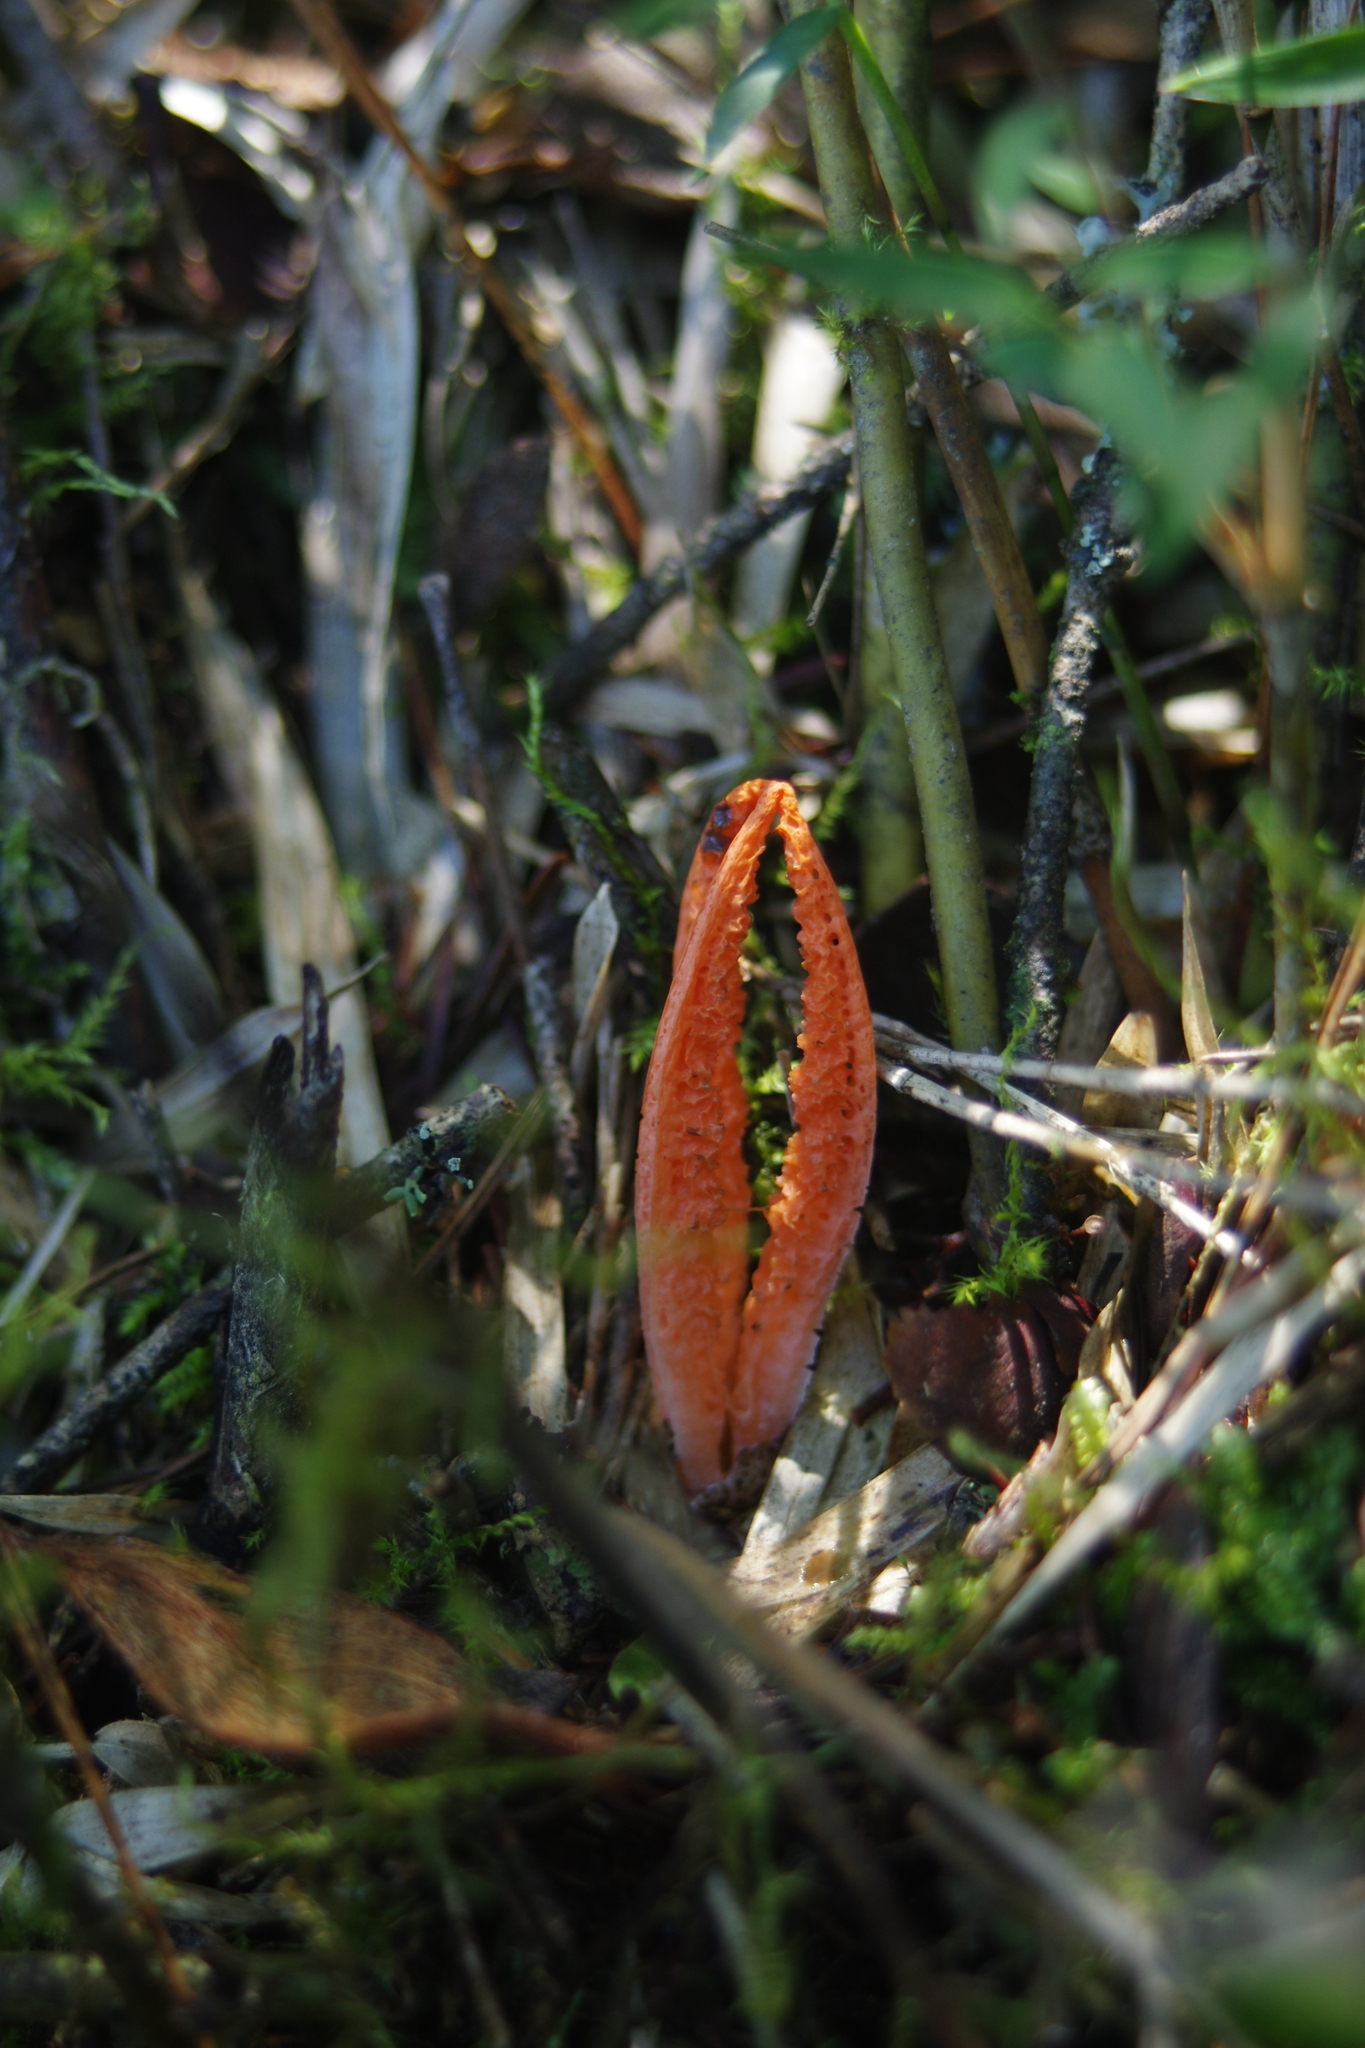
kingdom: Fungi
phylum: Basidiomycota
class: Agaricomycetes
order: Phallales
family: Phallaceae
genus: Pseudocolus
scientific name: Pseudocolus fusiformis
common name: Stinky squid
